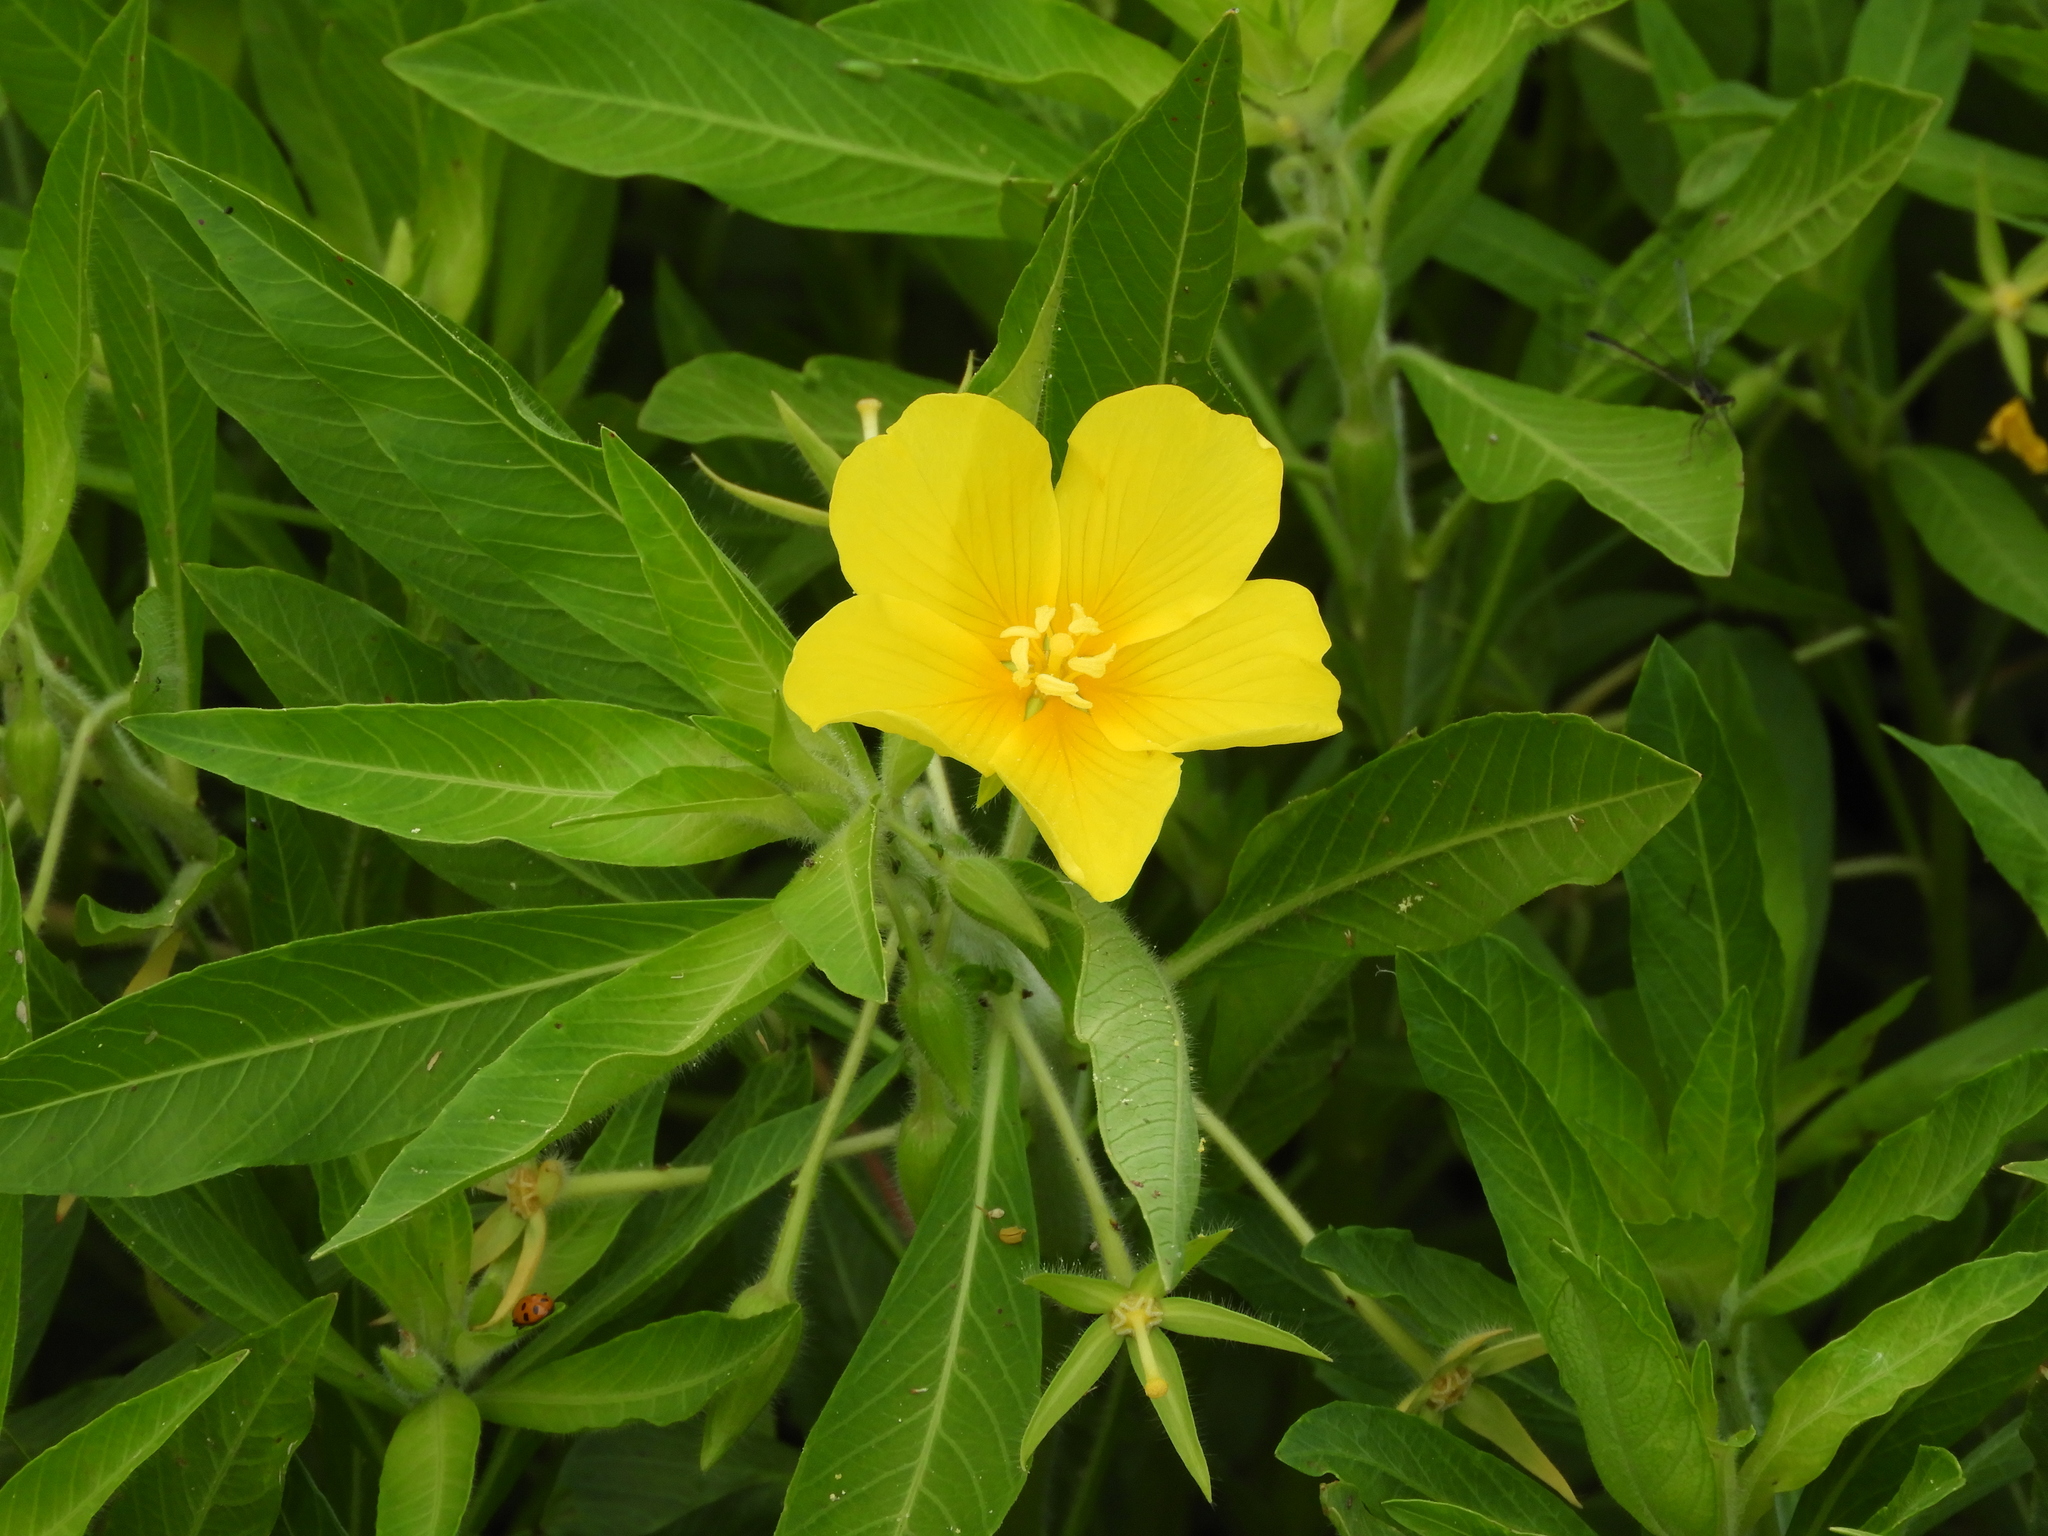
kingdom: Plantae
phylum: Tracheophyta
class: Magnoliopsida
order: Myrtales
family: Onagraceae
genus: Ludwigia
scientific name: Ludwigia hexapetala
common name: Water-primrose
